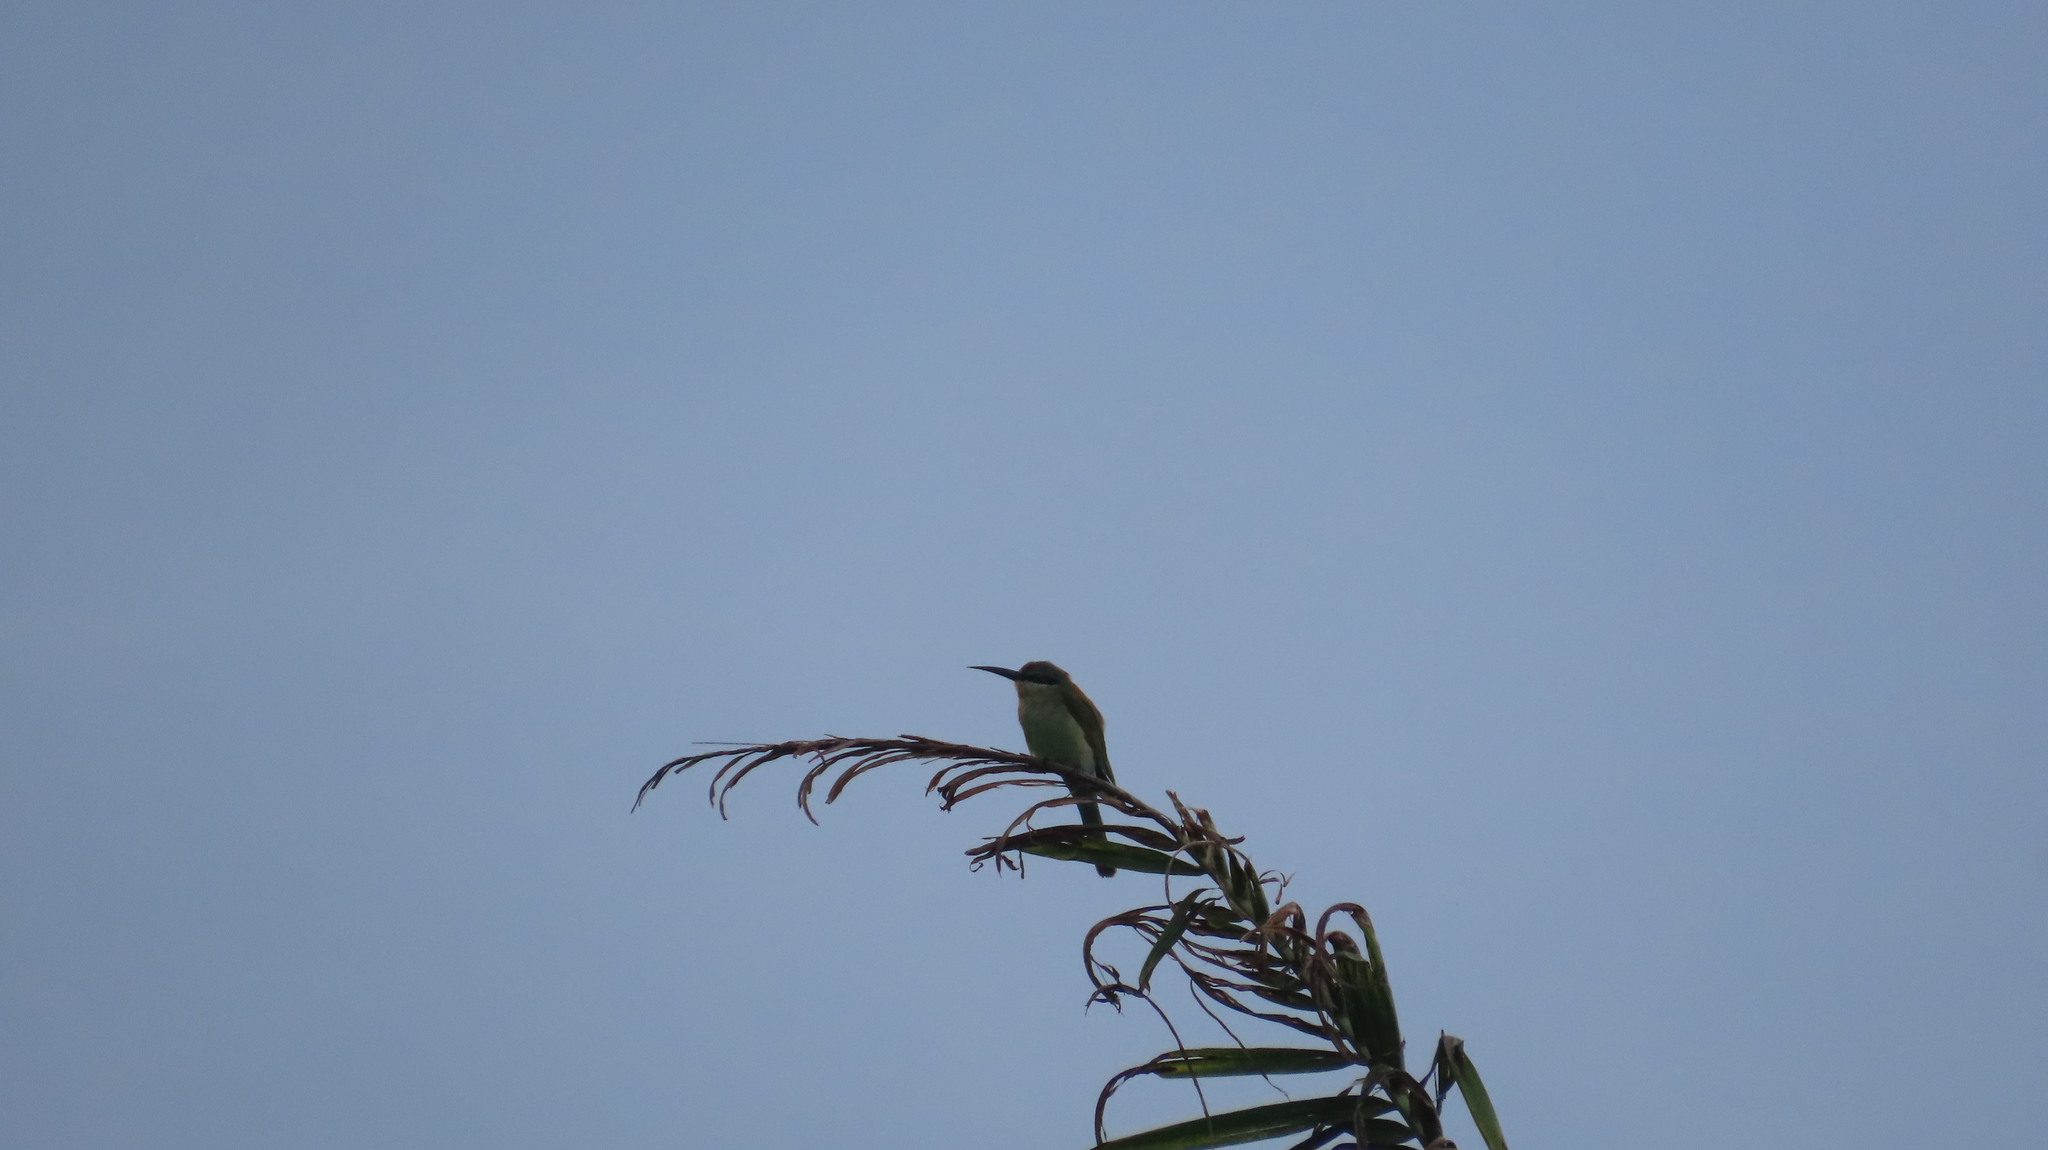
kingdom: Animalia
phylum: Chordata
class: Aves
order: Coraciiformes
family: Meropidae
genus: Merops
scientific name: Merops philippinus
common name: Blue-tailed bee-eater
